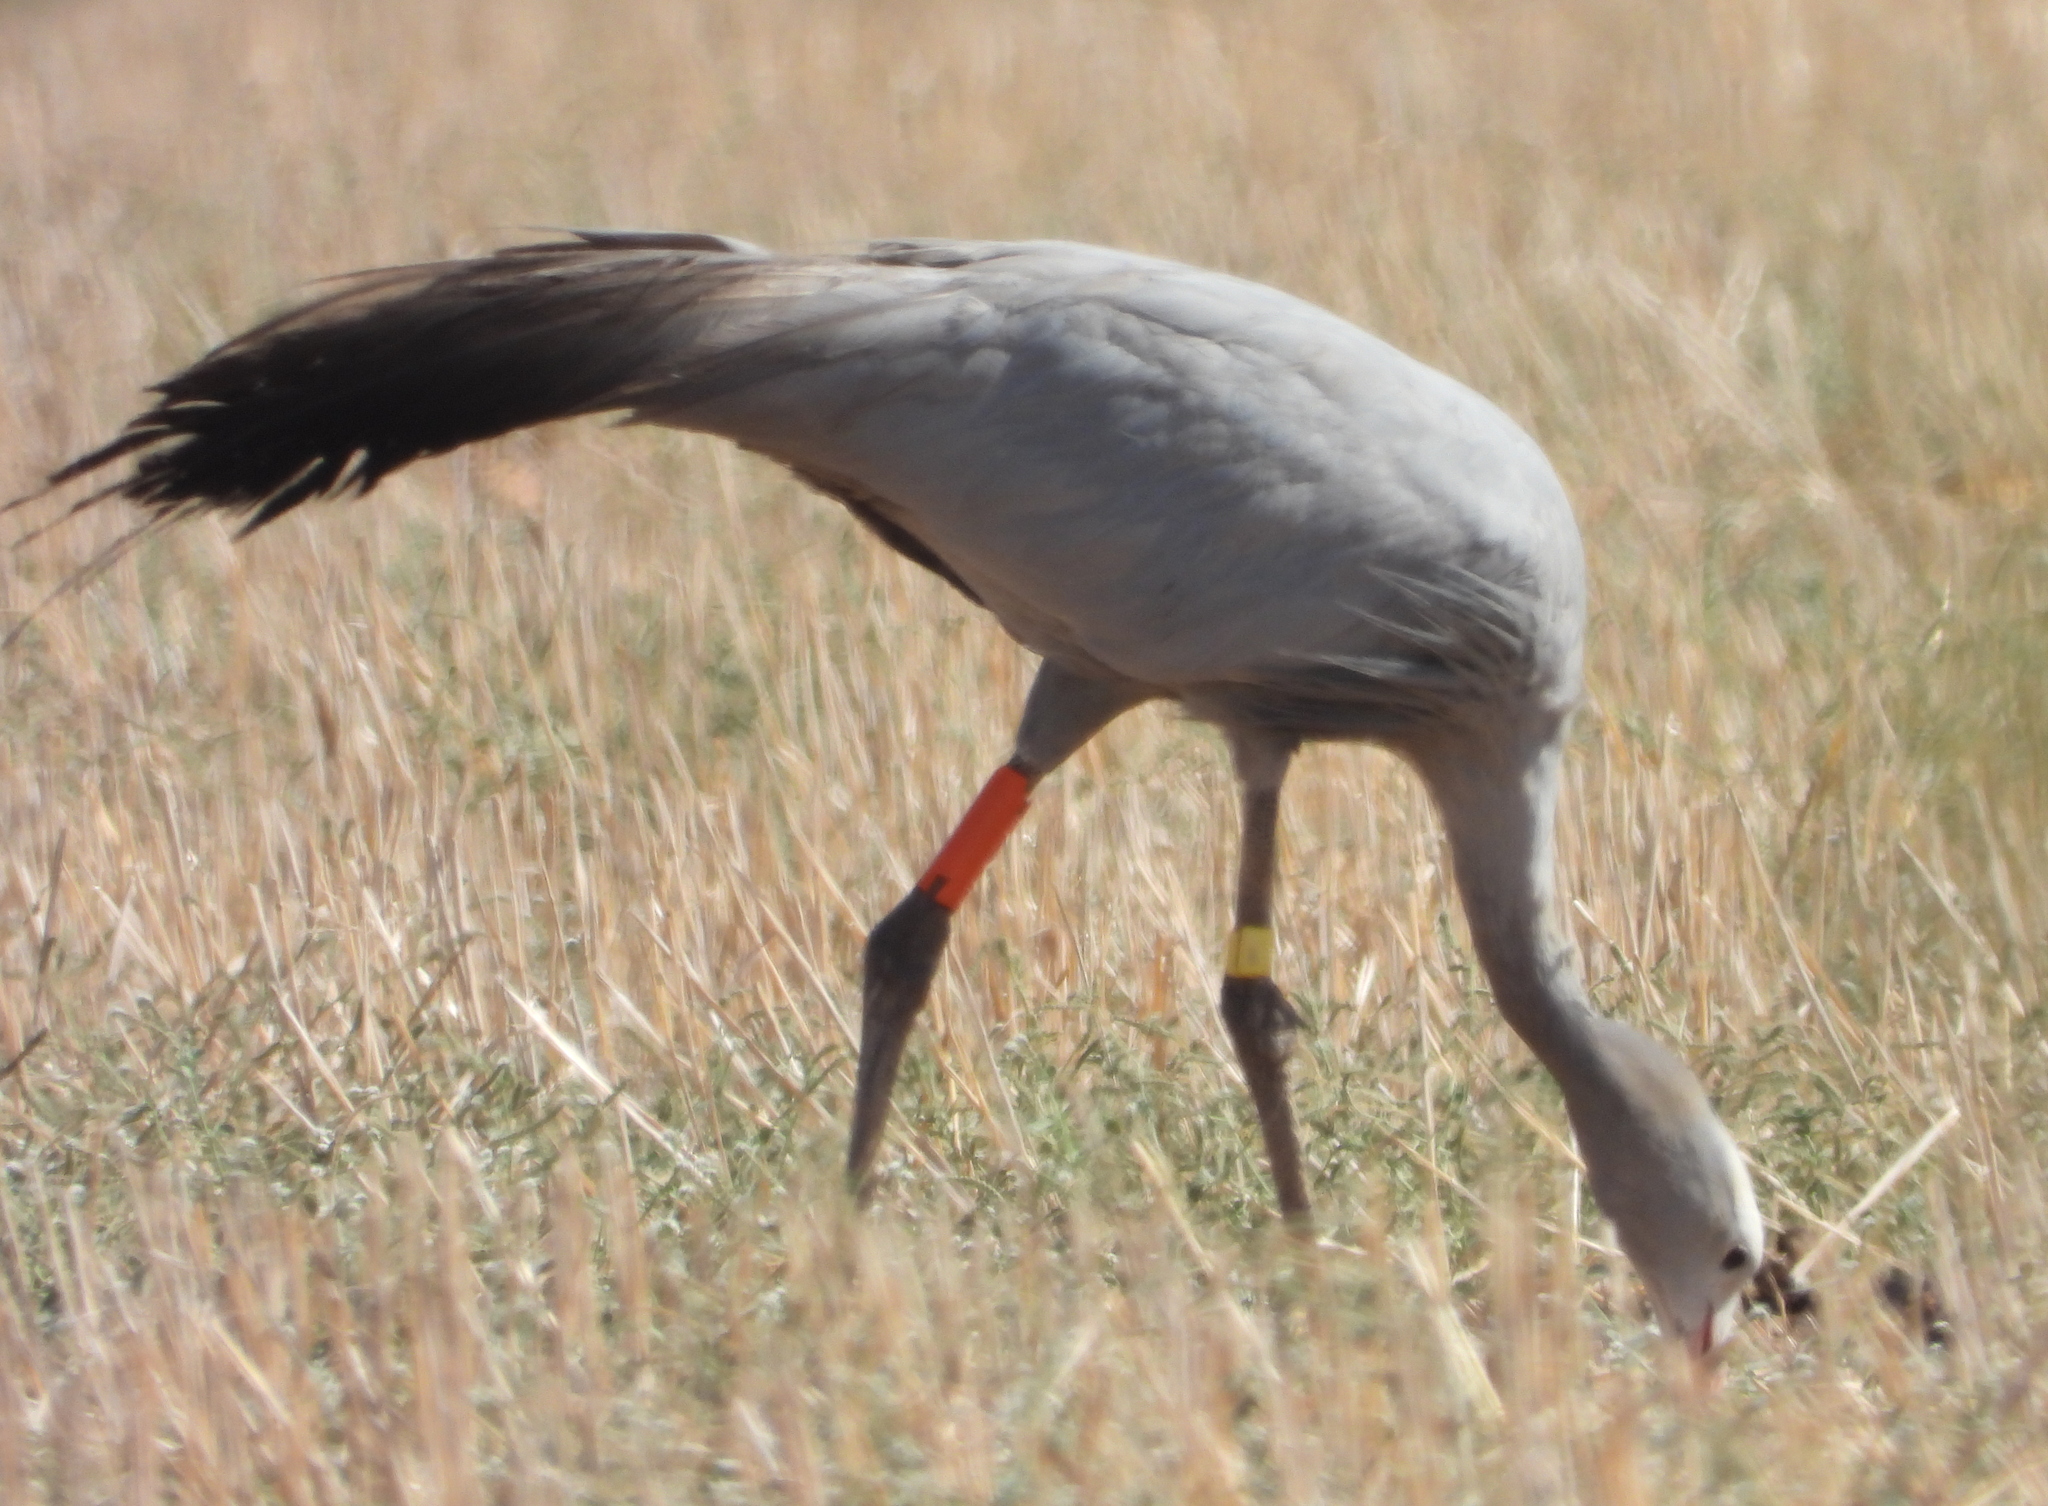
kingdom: Animalia
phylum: Chordata
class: Aves
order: Gruiformes
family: Gruidae
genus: Anthropoides
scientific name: Anthropoides paradiseus
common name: Blue crane
